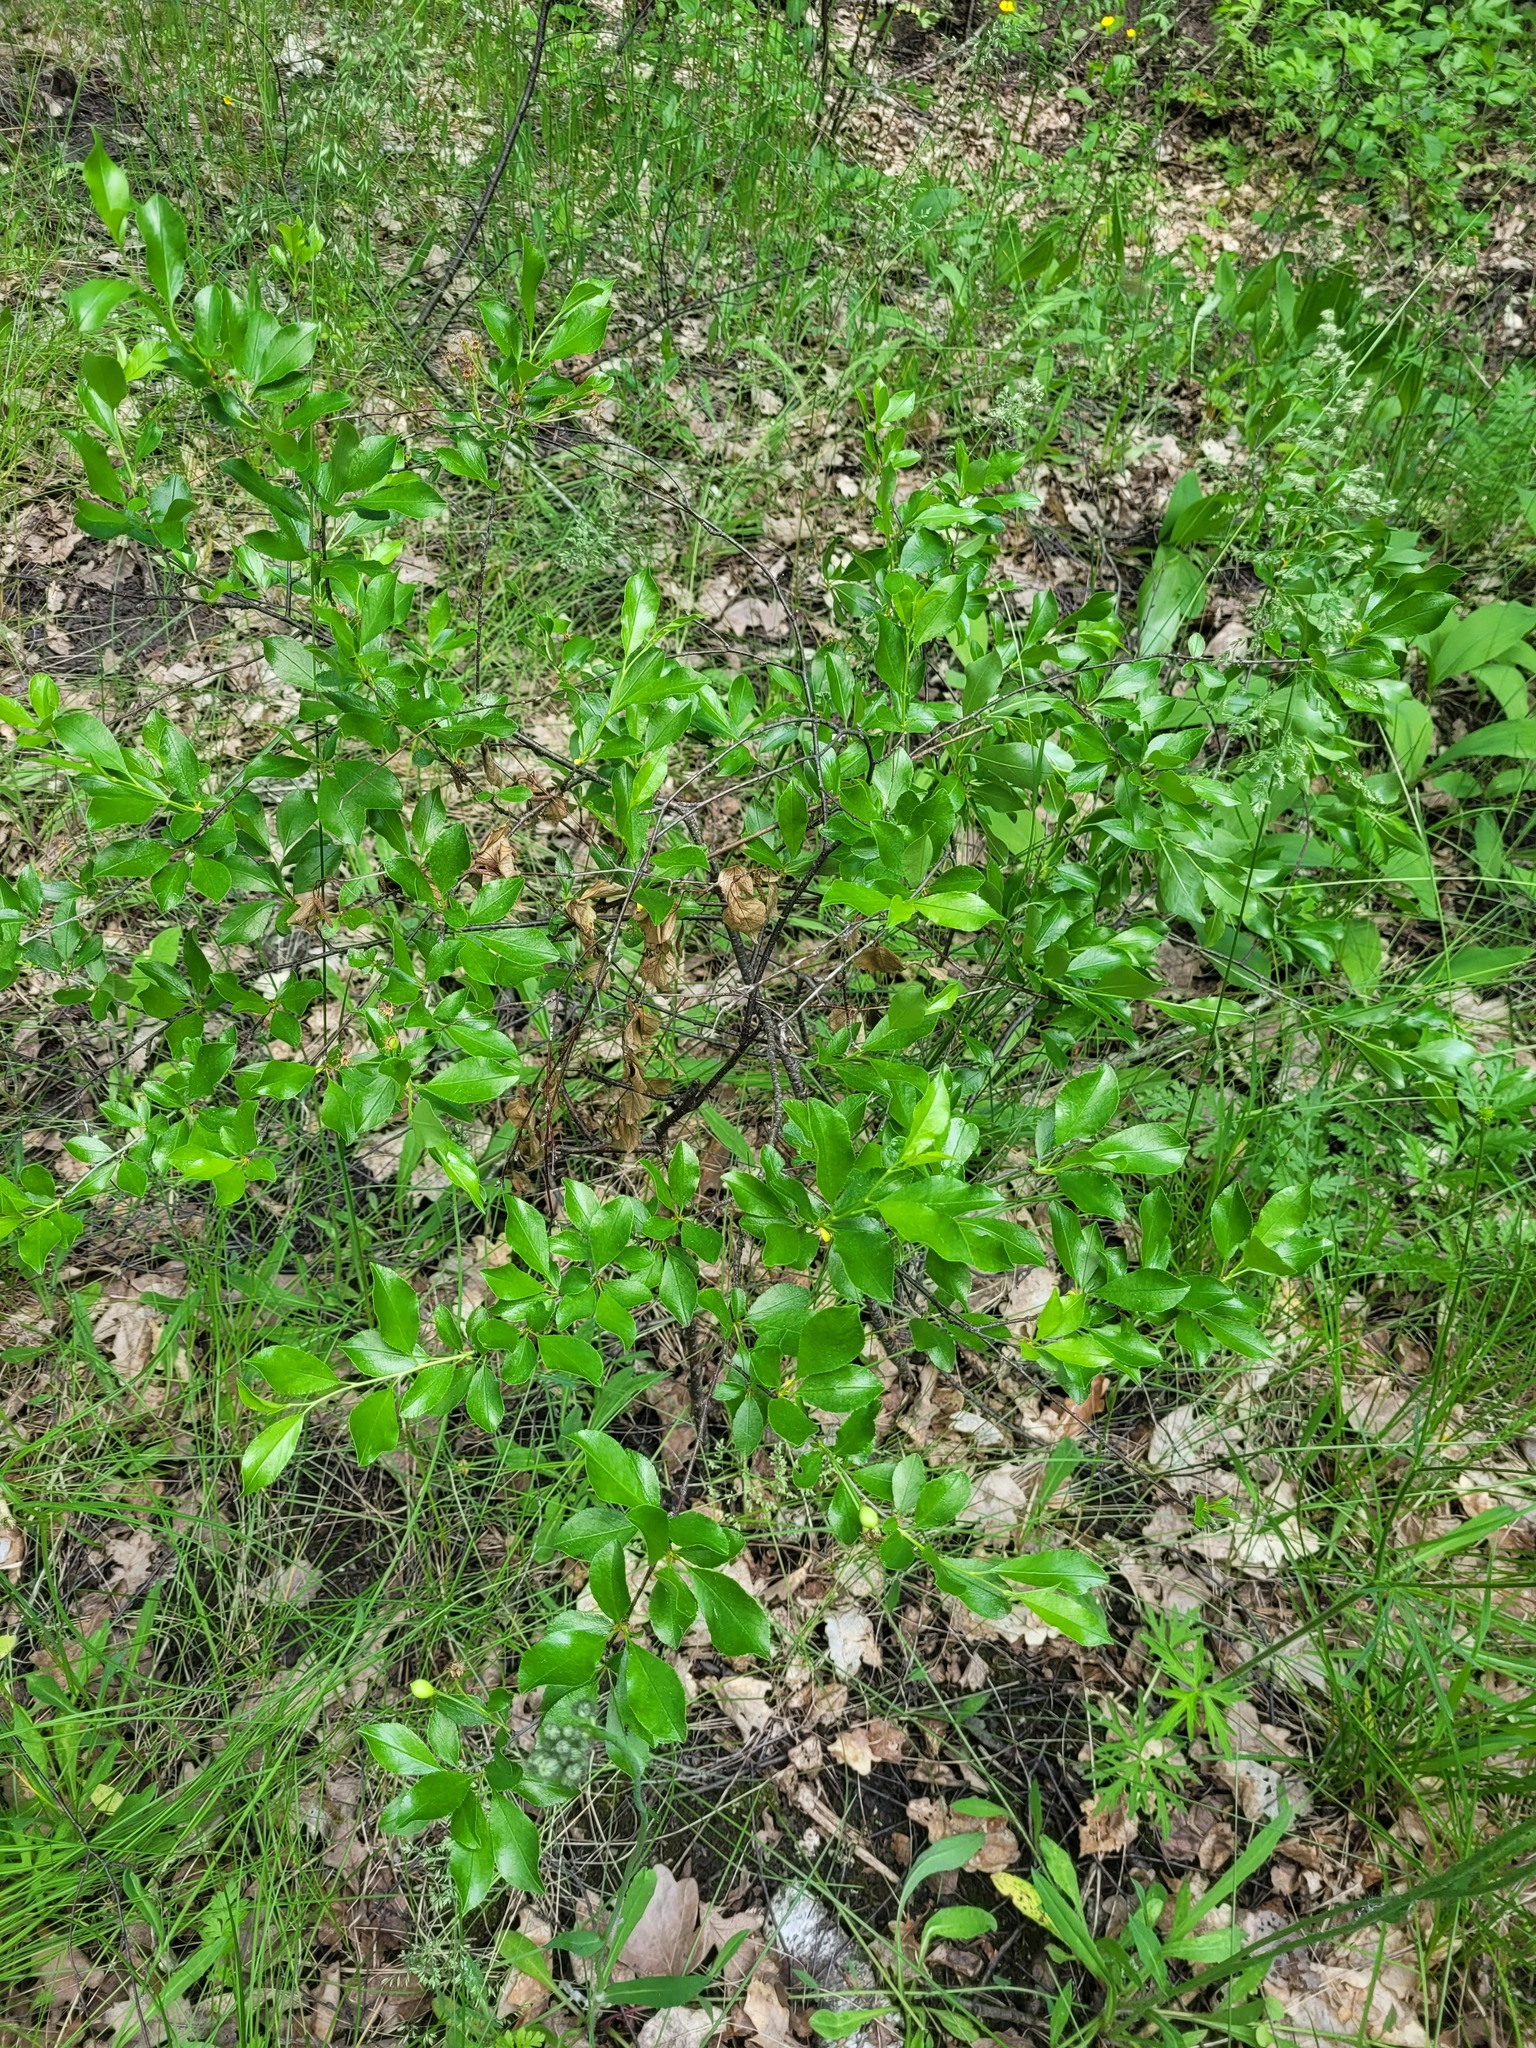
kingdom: Plantae
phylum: Tracheophyta
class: Magnoliopsida
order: Rosales
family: Rosaceae
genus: Prunus
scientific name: Prunus fruticosa
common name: European dwarf cherry
